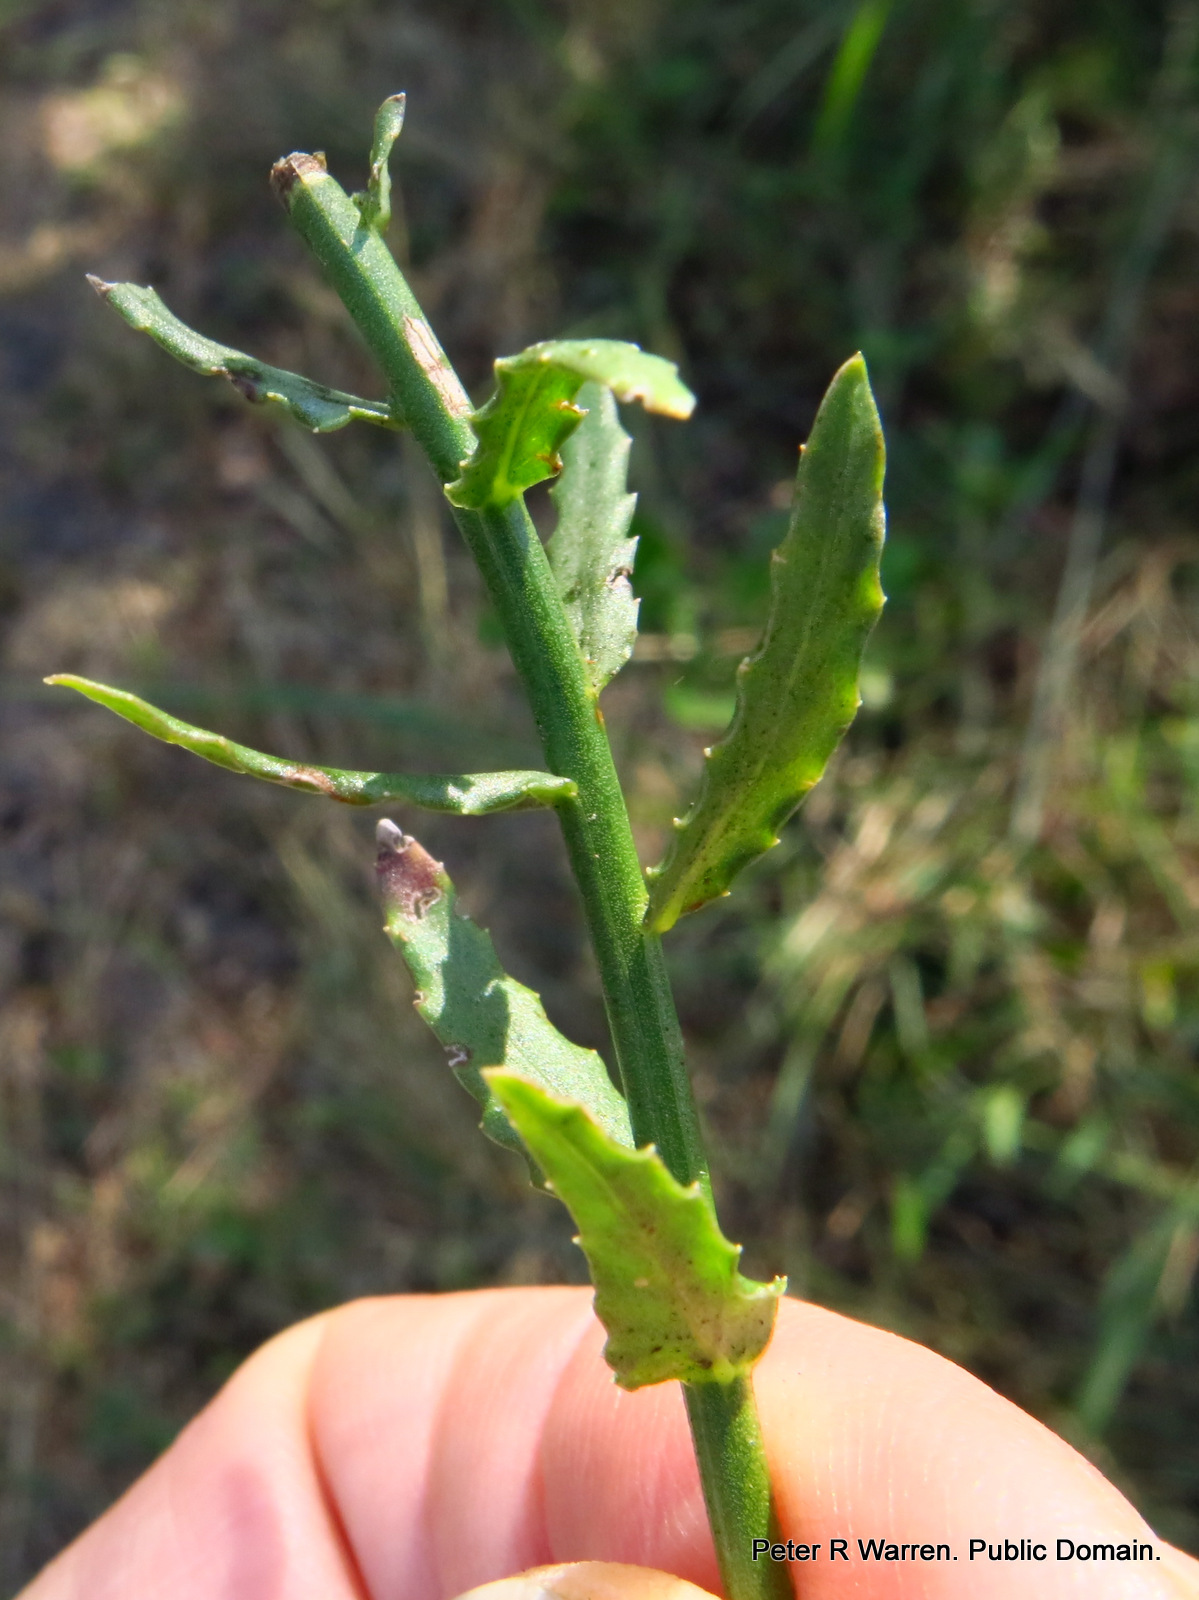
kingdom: Plantae
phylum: Tracheophyta
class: Magnoliopsida
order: Asterales
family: Campanulaceae
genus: Wahlenbergia
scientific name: Wahlenbergia krebsii
